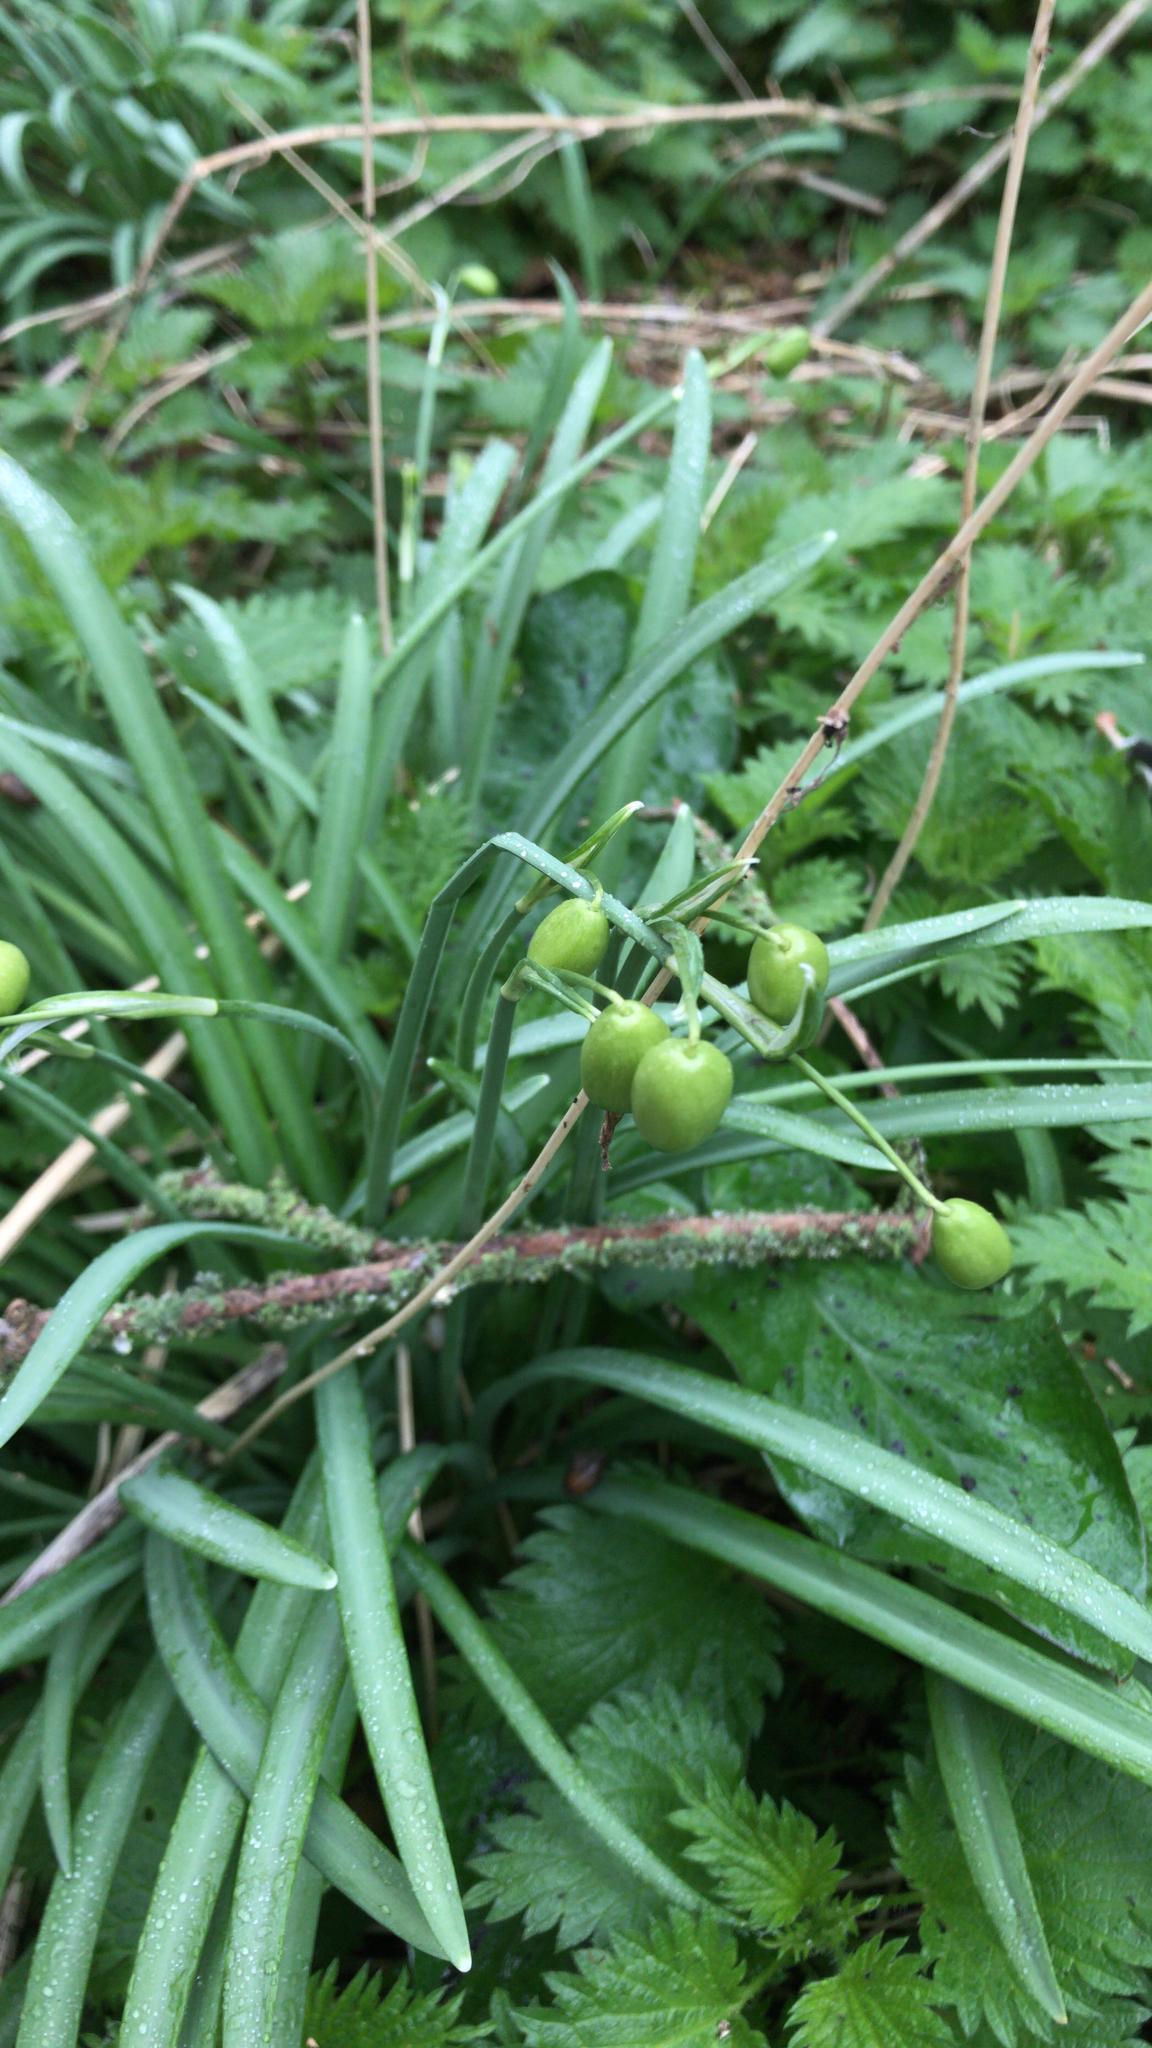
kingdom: Plantae
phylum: Tracheophyta
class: Liliopsida
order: Asparagales
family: Amaryllidaceae
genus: Galanthus
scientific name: Galanthus nivalis
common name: Snowdrop
